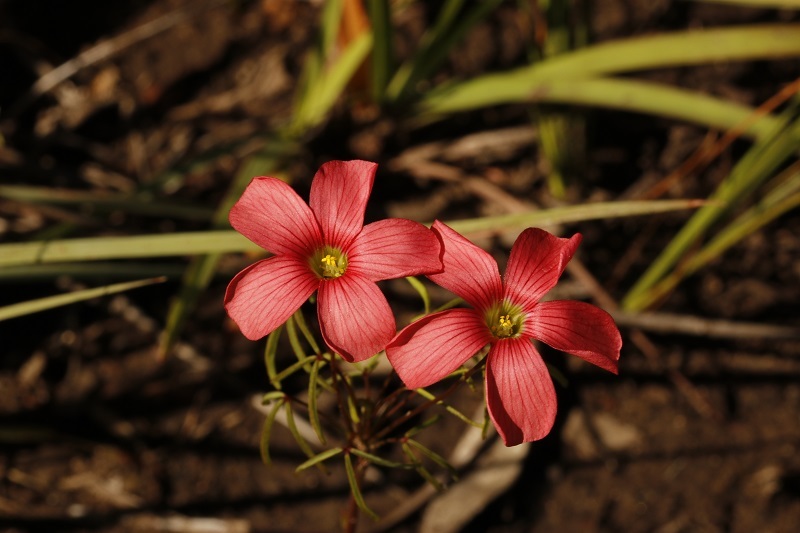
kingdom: Plantae
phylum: Tracheophyta
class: Magnoliopsida
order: Oxalidales
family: Oxalidaceae
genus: Oxalis
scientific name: Oxalis pendulifolia
